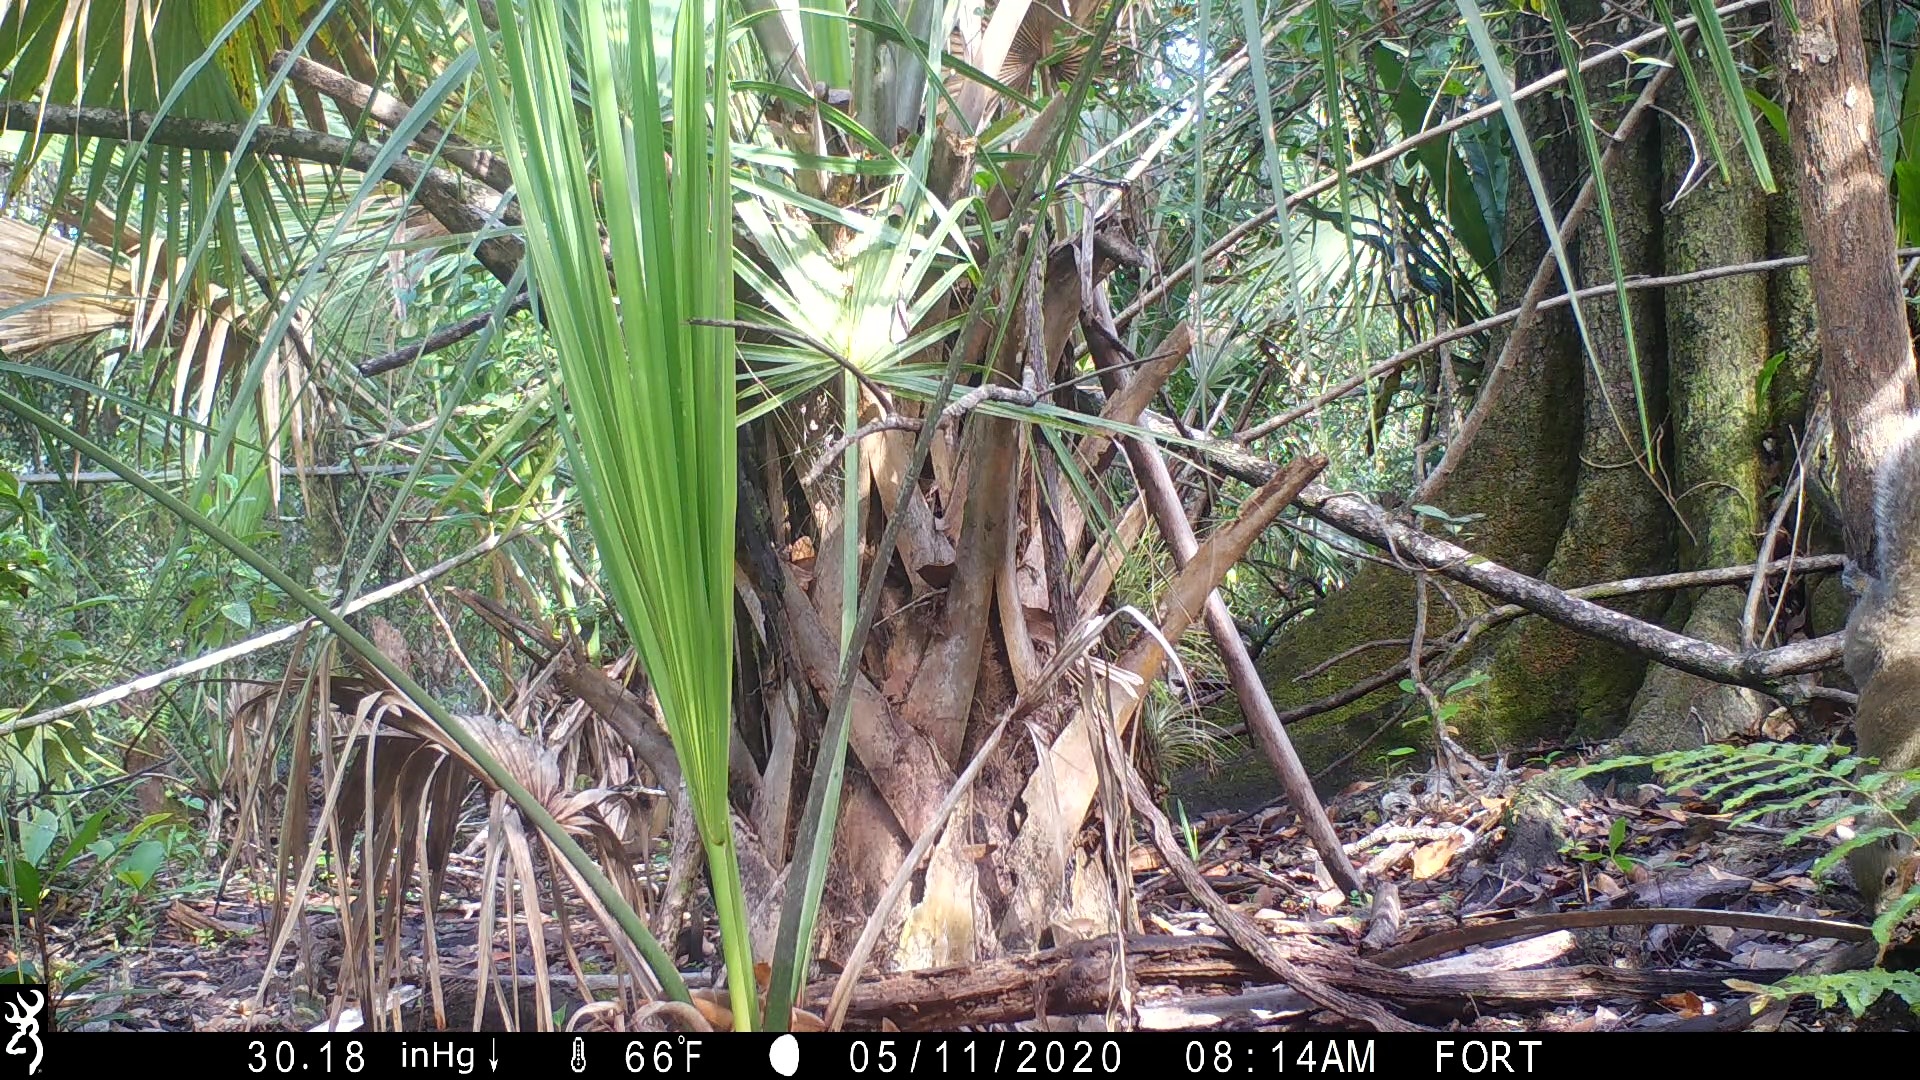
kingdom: Animalia
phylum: Chordata
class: Mammalia
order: Rodentia
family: Sciuridae
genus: Sciurus
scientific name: Sciurus carolinensis
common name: Eastern gray squirrel
